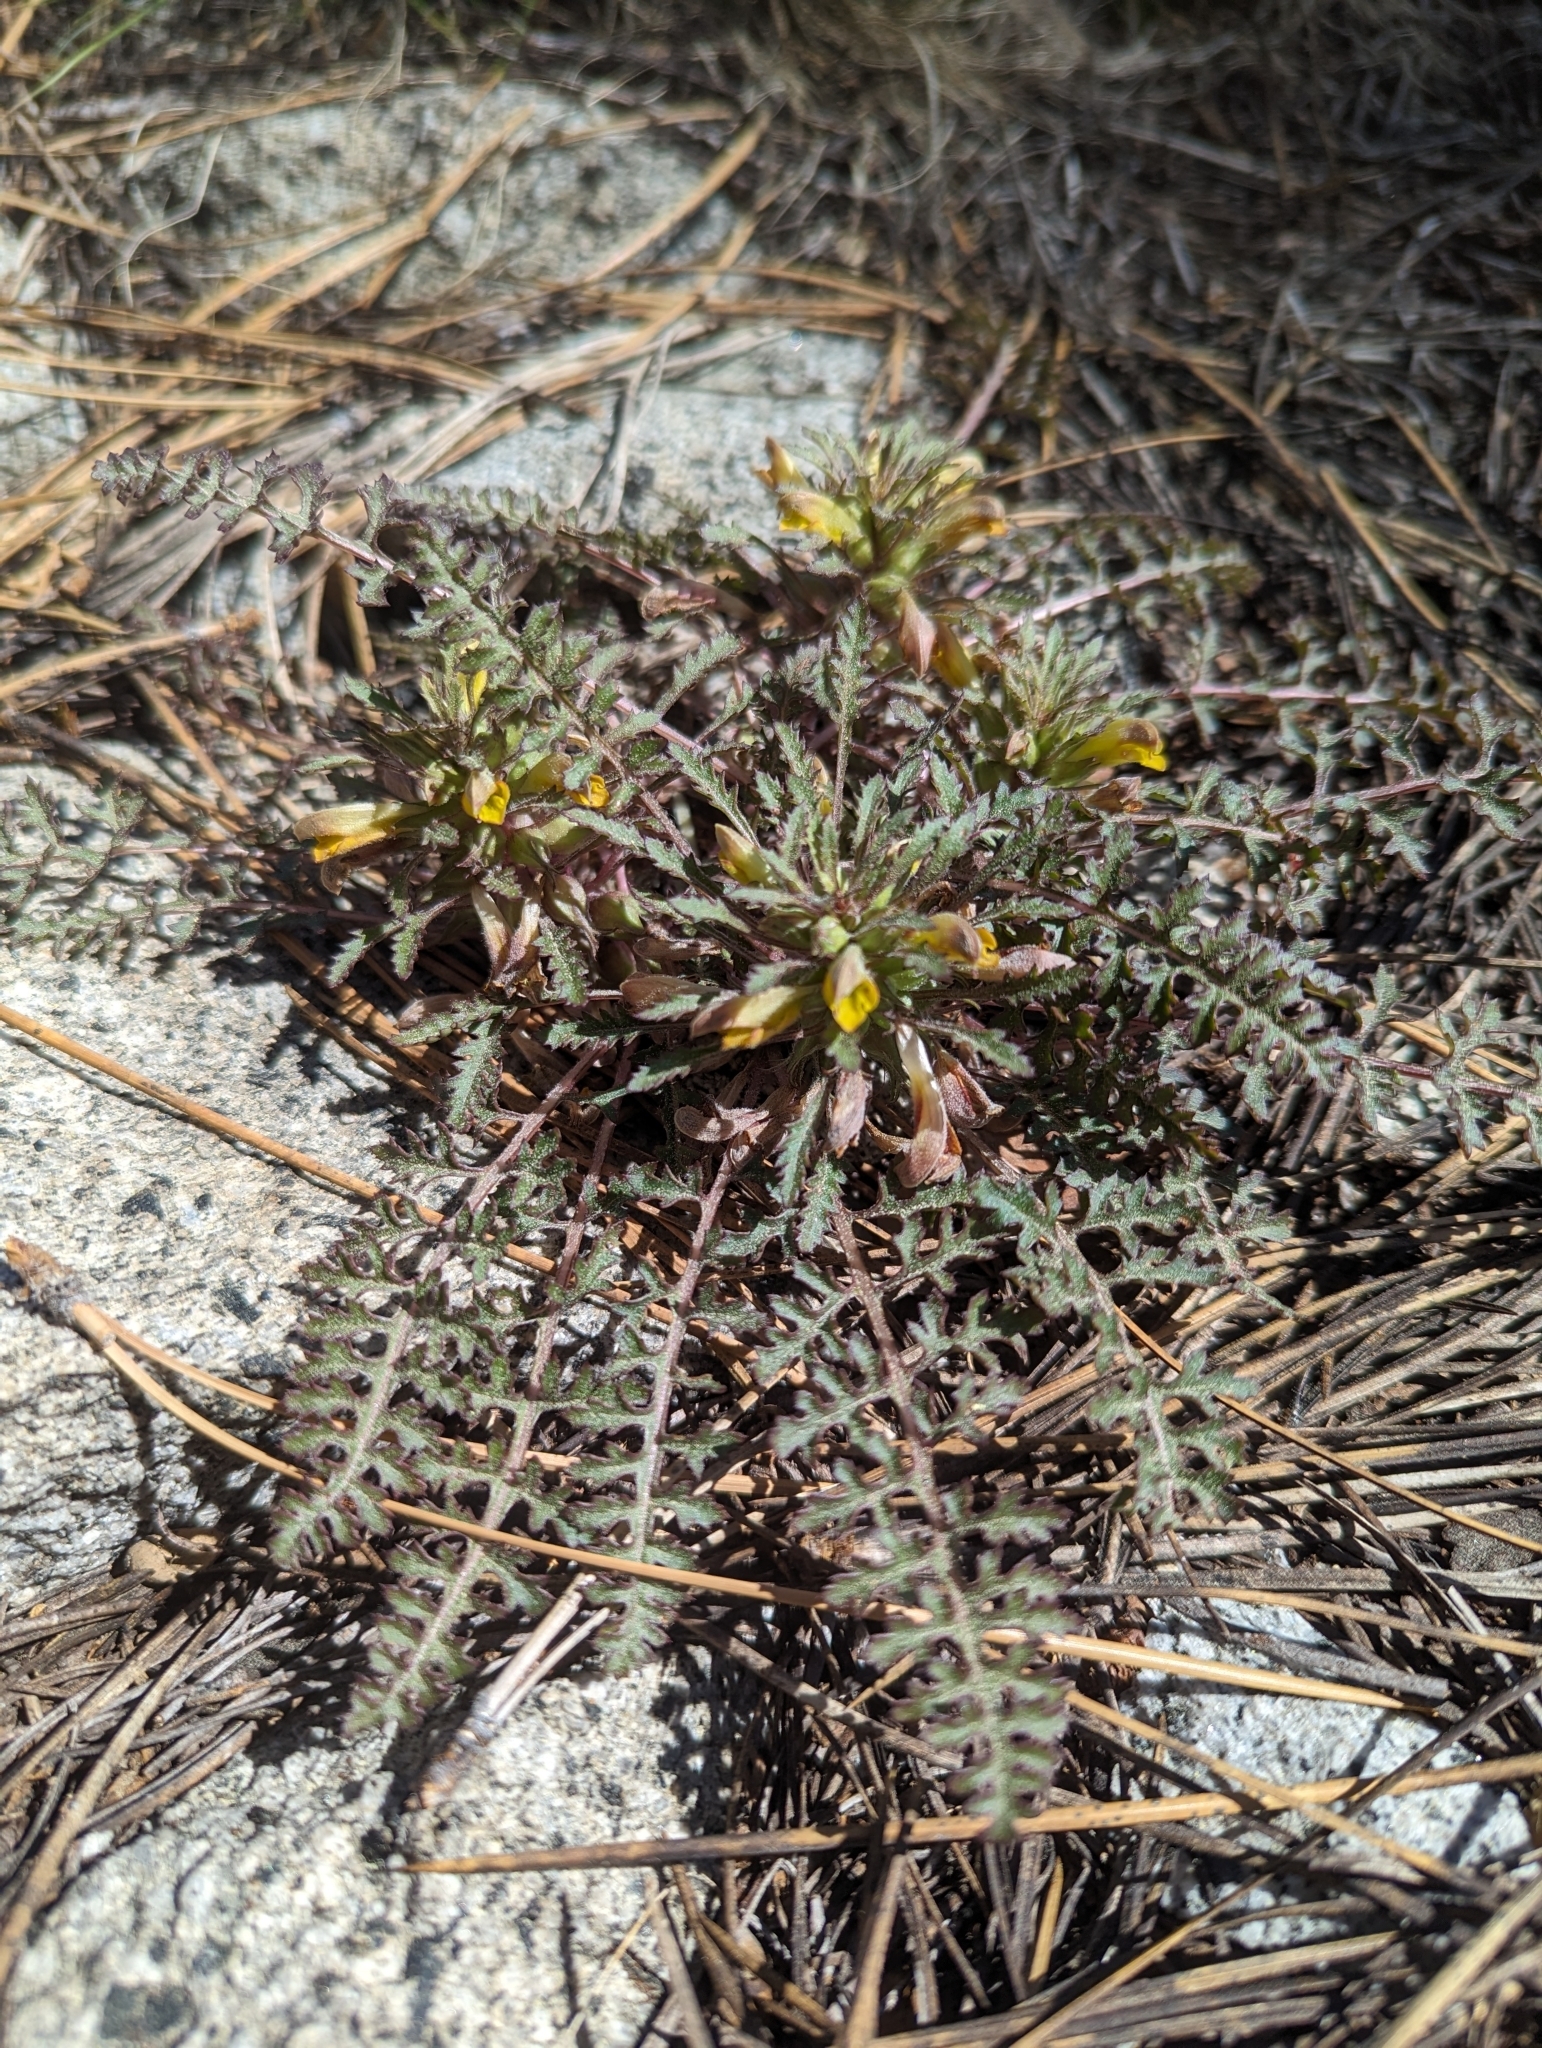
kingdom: Plantae
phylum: Tracheophyta
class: Magnoliopsida
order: Lamiales
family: Orobanchaceae
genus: Pedicularis
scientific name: Pedicularis semibarbata
